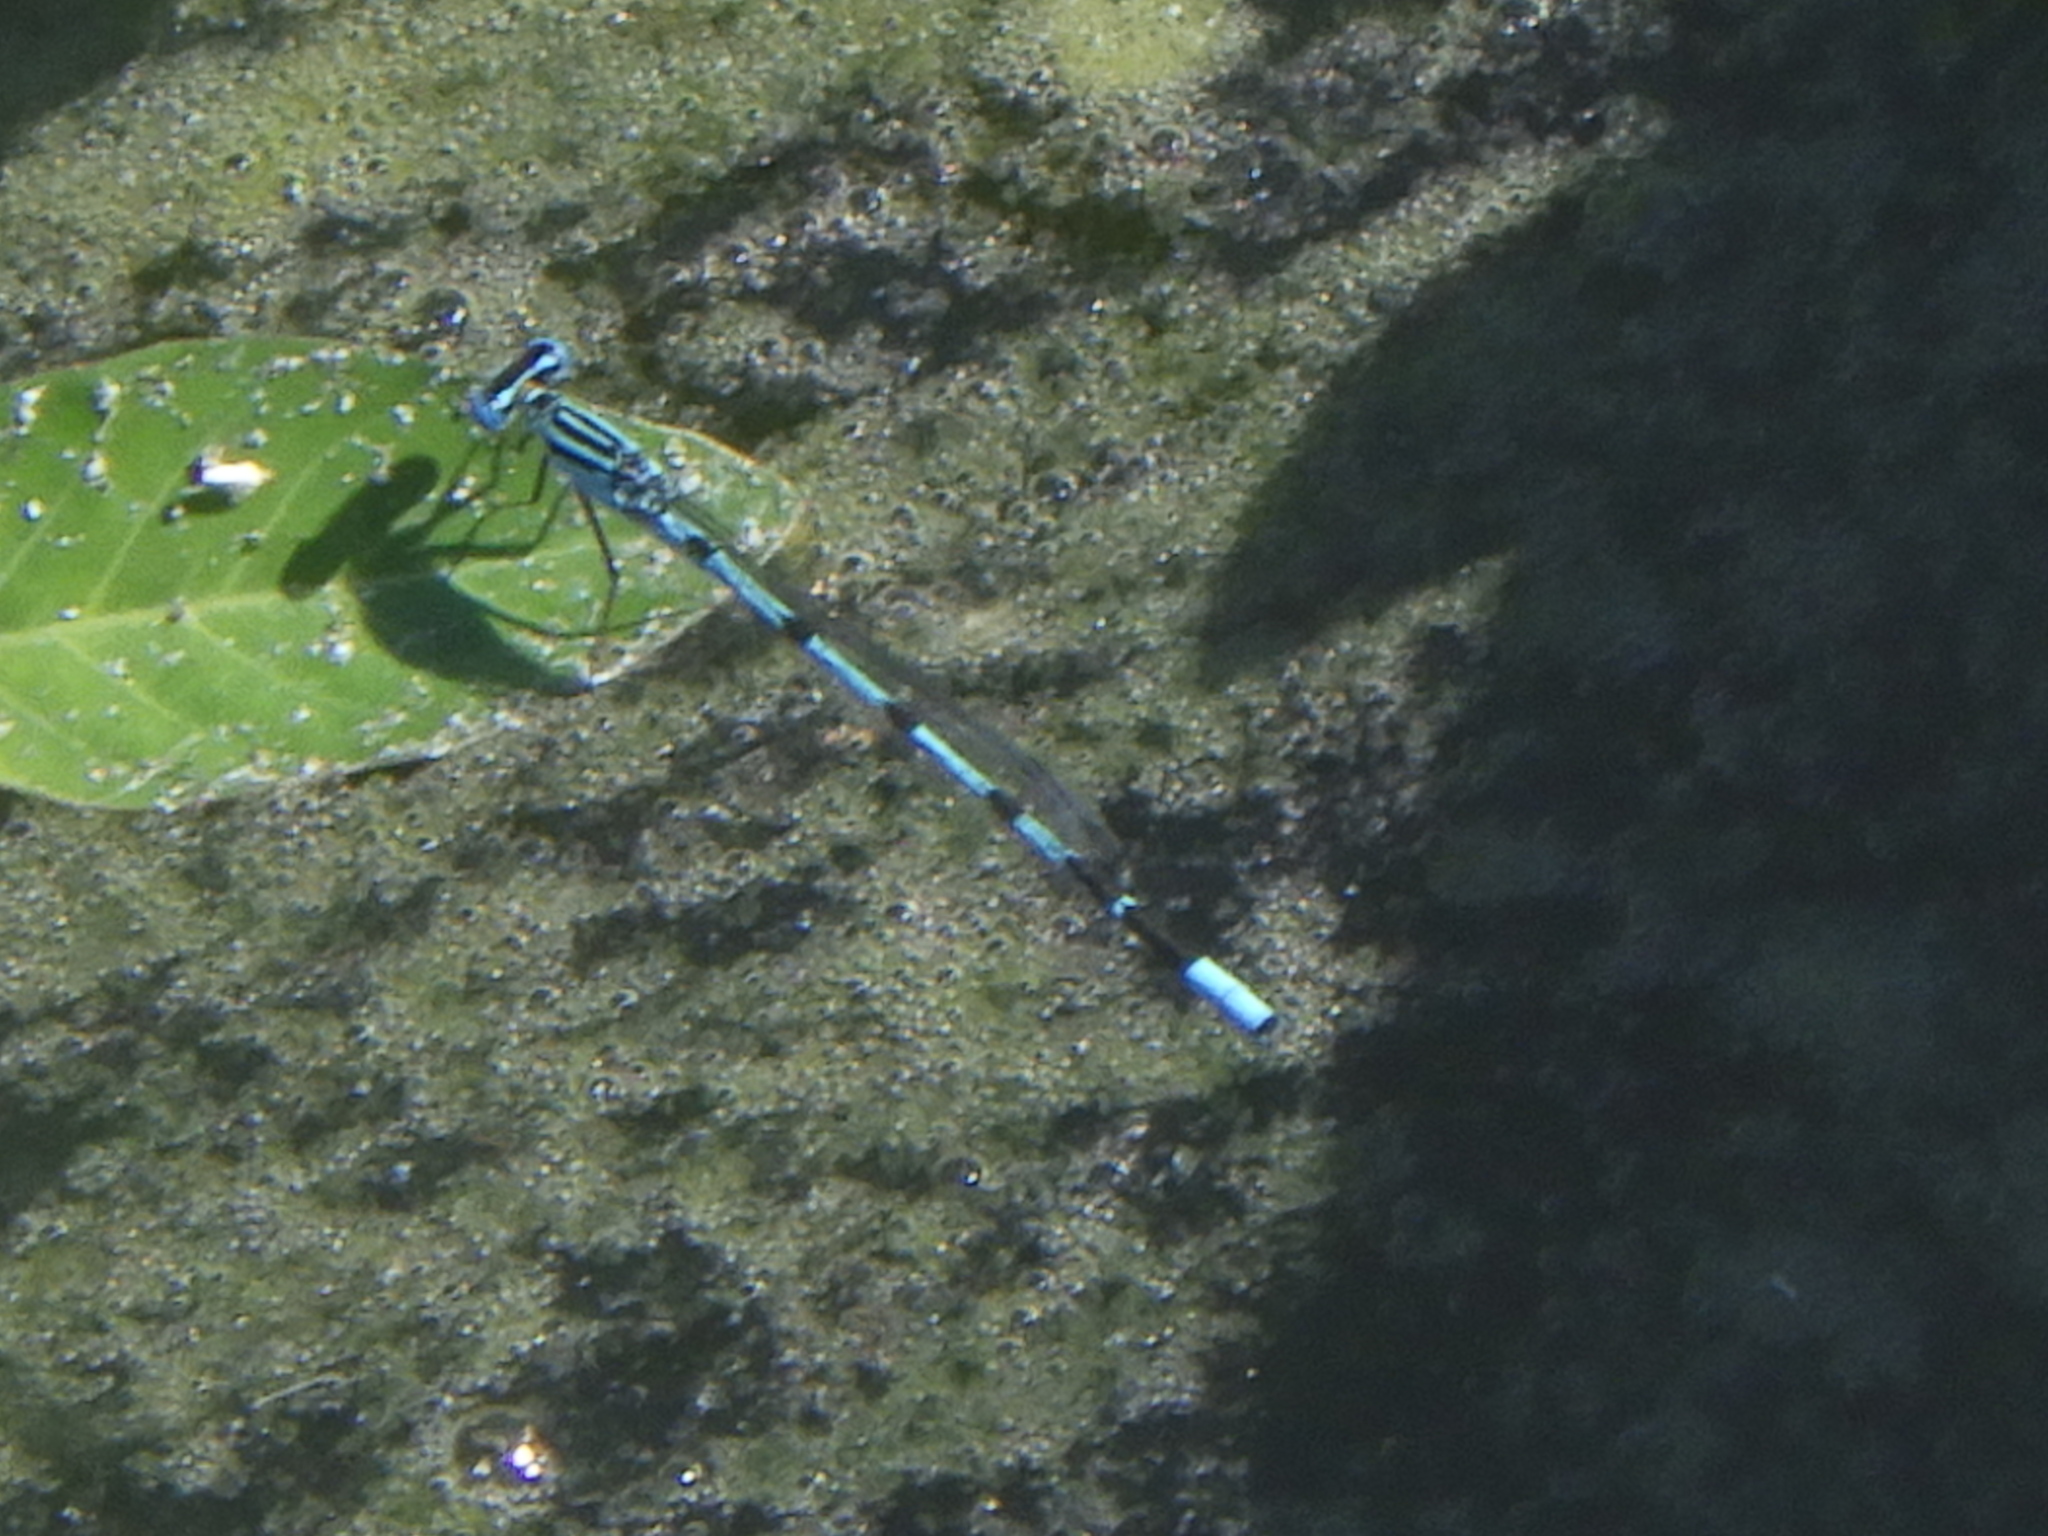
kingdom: Animalia
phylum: Arthropoda
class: Insecta
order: Odonata
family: Coenagrionidae
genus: Enallagma
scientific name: Enallagma durum
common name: Big bluet
